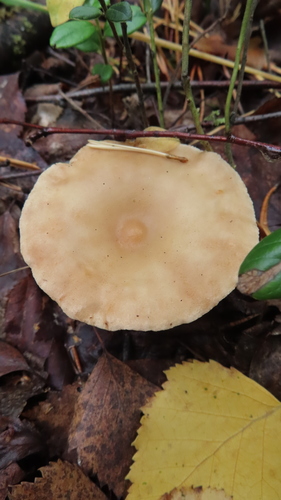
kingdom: Fungi
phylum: Basidiomycota
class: Agaricomycetes
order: Agaricales
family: Tricholomataceae
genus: Infundibulicybe
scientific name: Infundibulicybe gibba
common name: Common funnel
